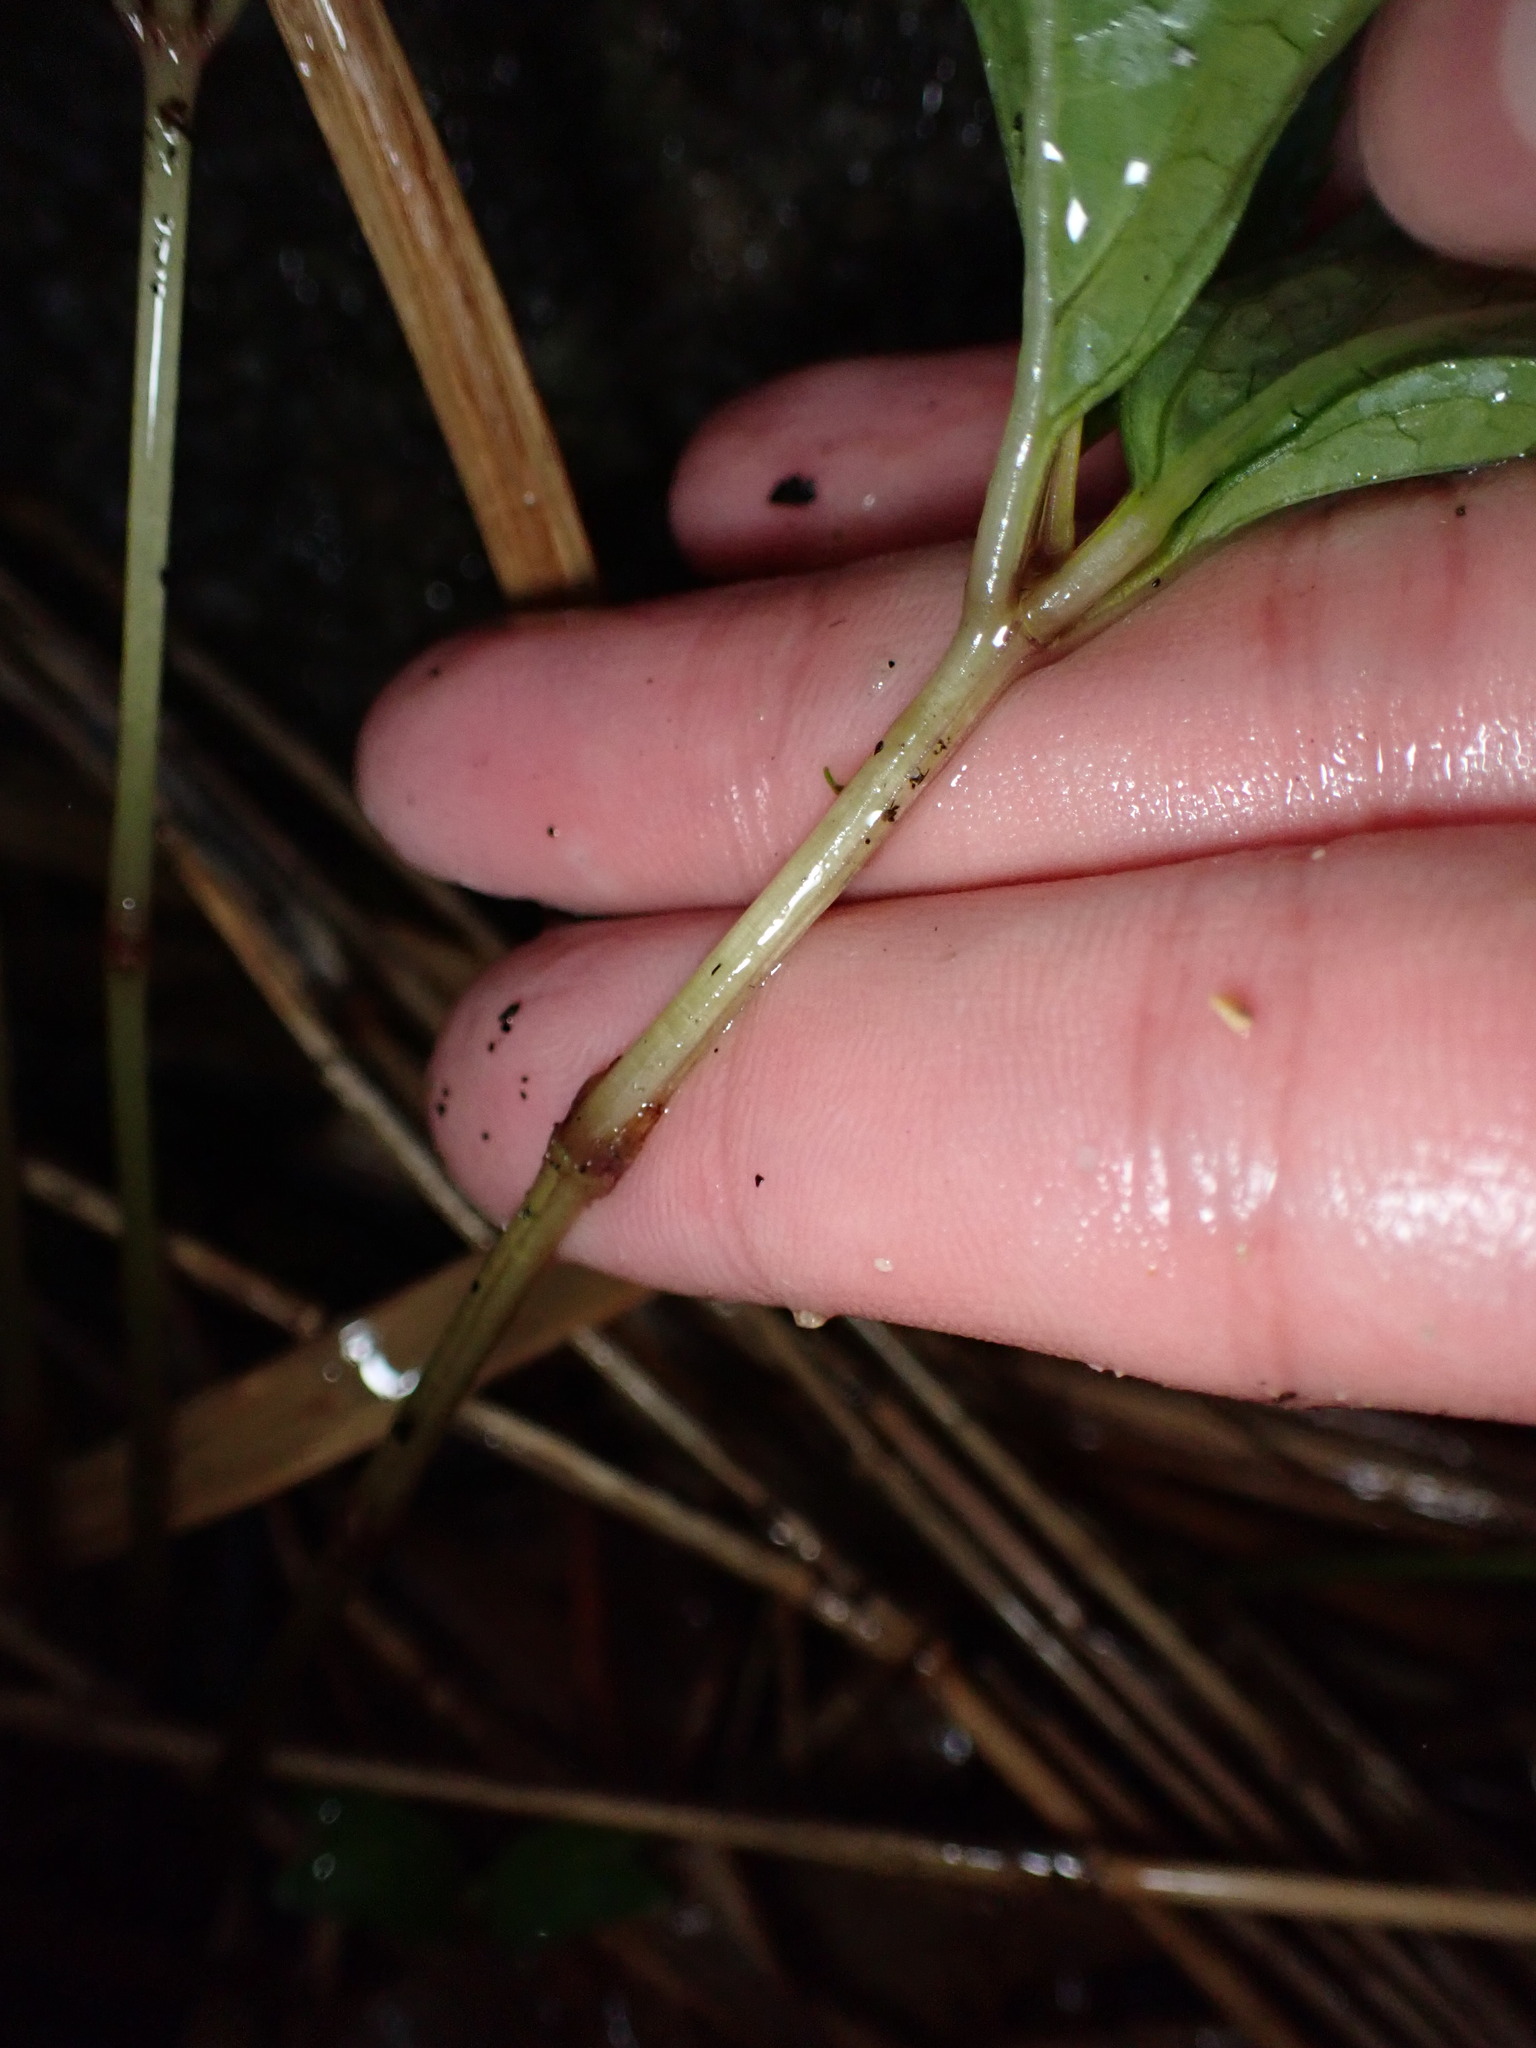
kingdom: Plantae
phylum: Tracheophyta
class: Magnoliopsida
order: Chloranthales
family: Chloranthaceae
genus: Chloranthus
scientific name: Chloranthus serratus
